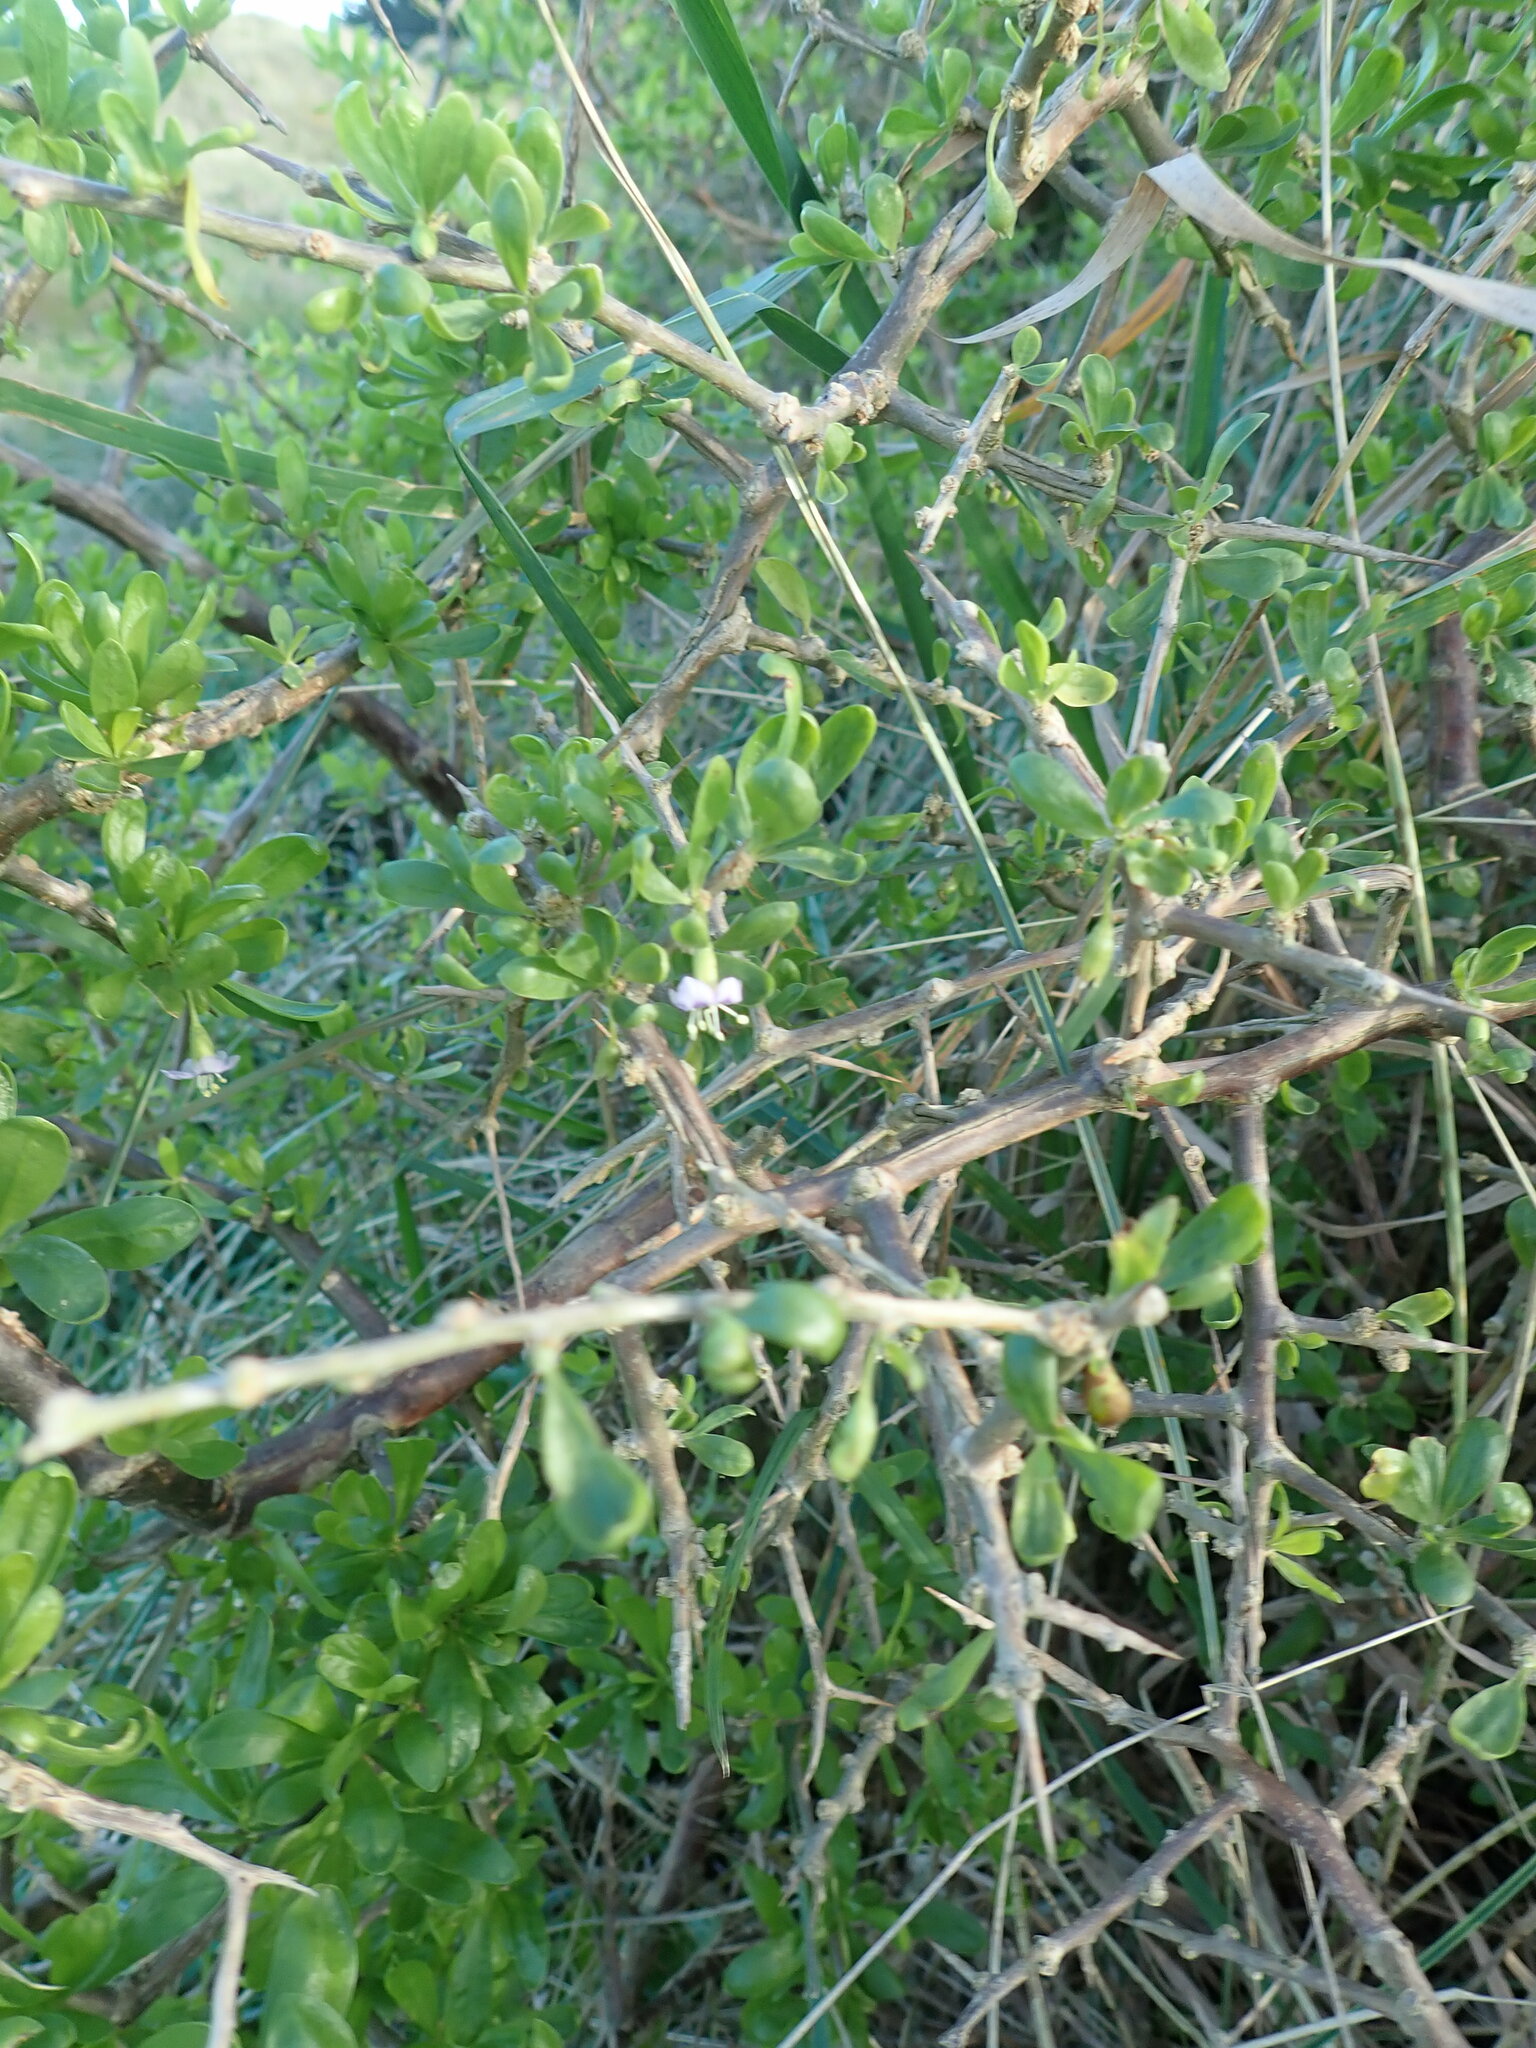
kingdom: Plantae
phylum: Tracheophyta
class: Magnoliopsida
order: Solanales
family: Solanaceae
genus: Lycium
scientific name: Lycium ferocissimum
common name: African boxthorn
